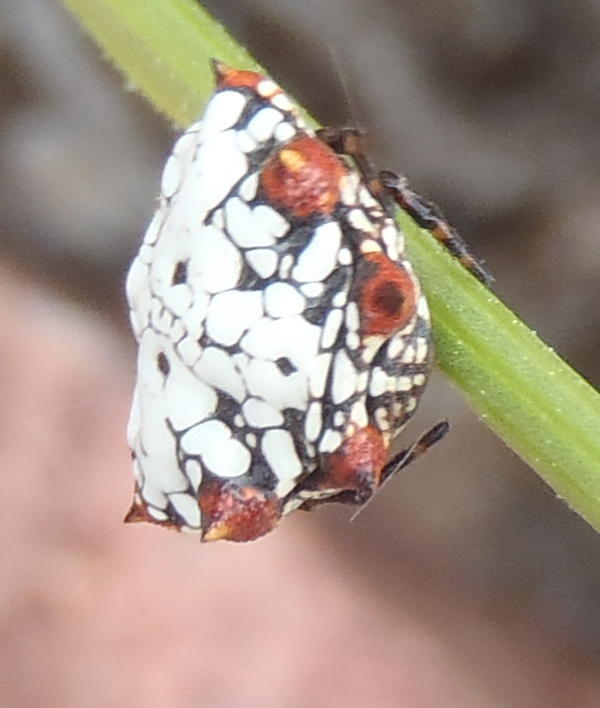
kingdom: Animalia
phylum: Arthropoda
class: Arachnida
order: Araneae
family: Araneidae
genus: Isoxya
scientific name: Isoxya mossamedensis
